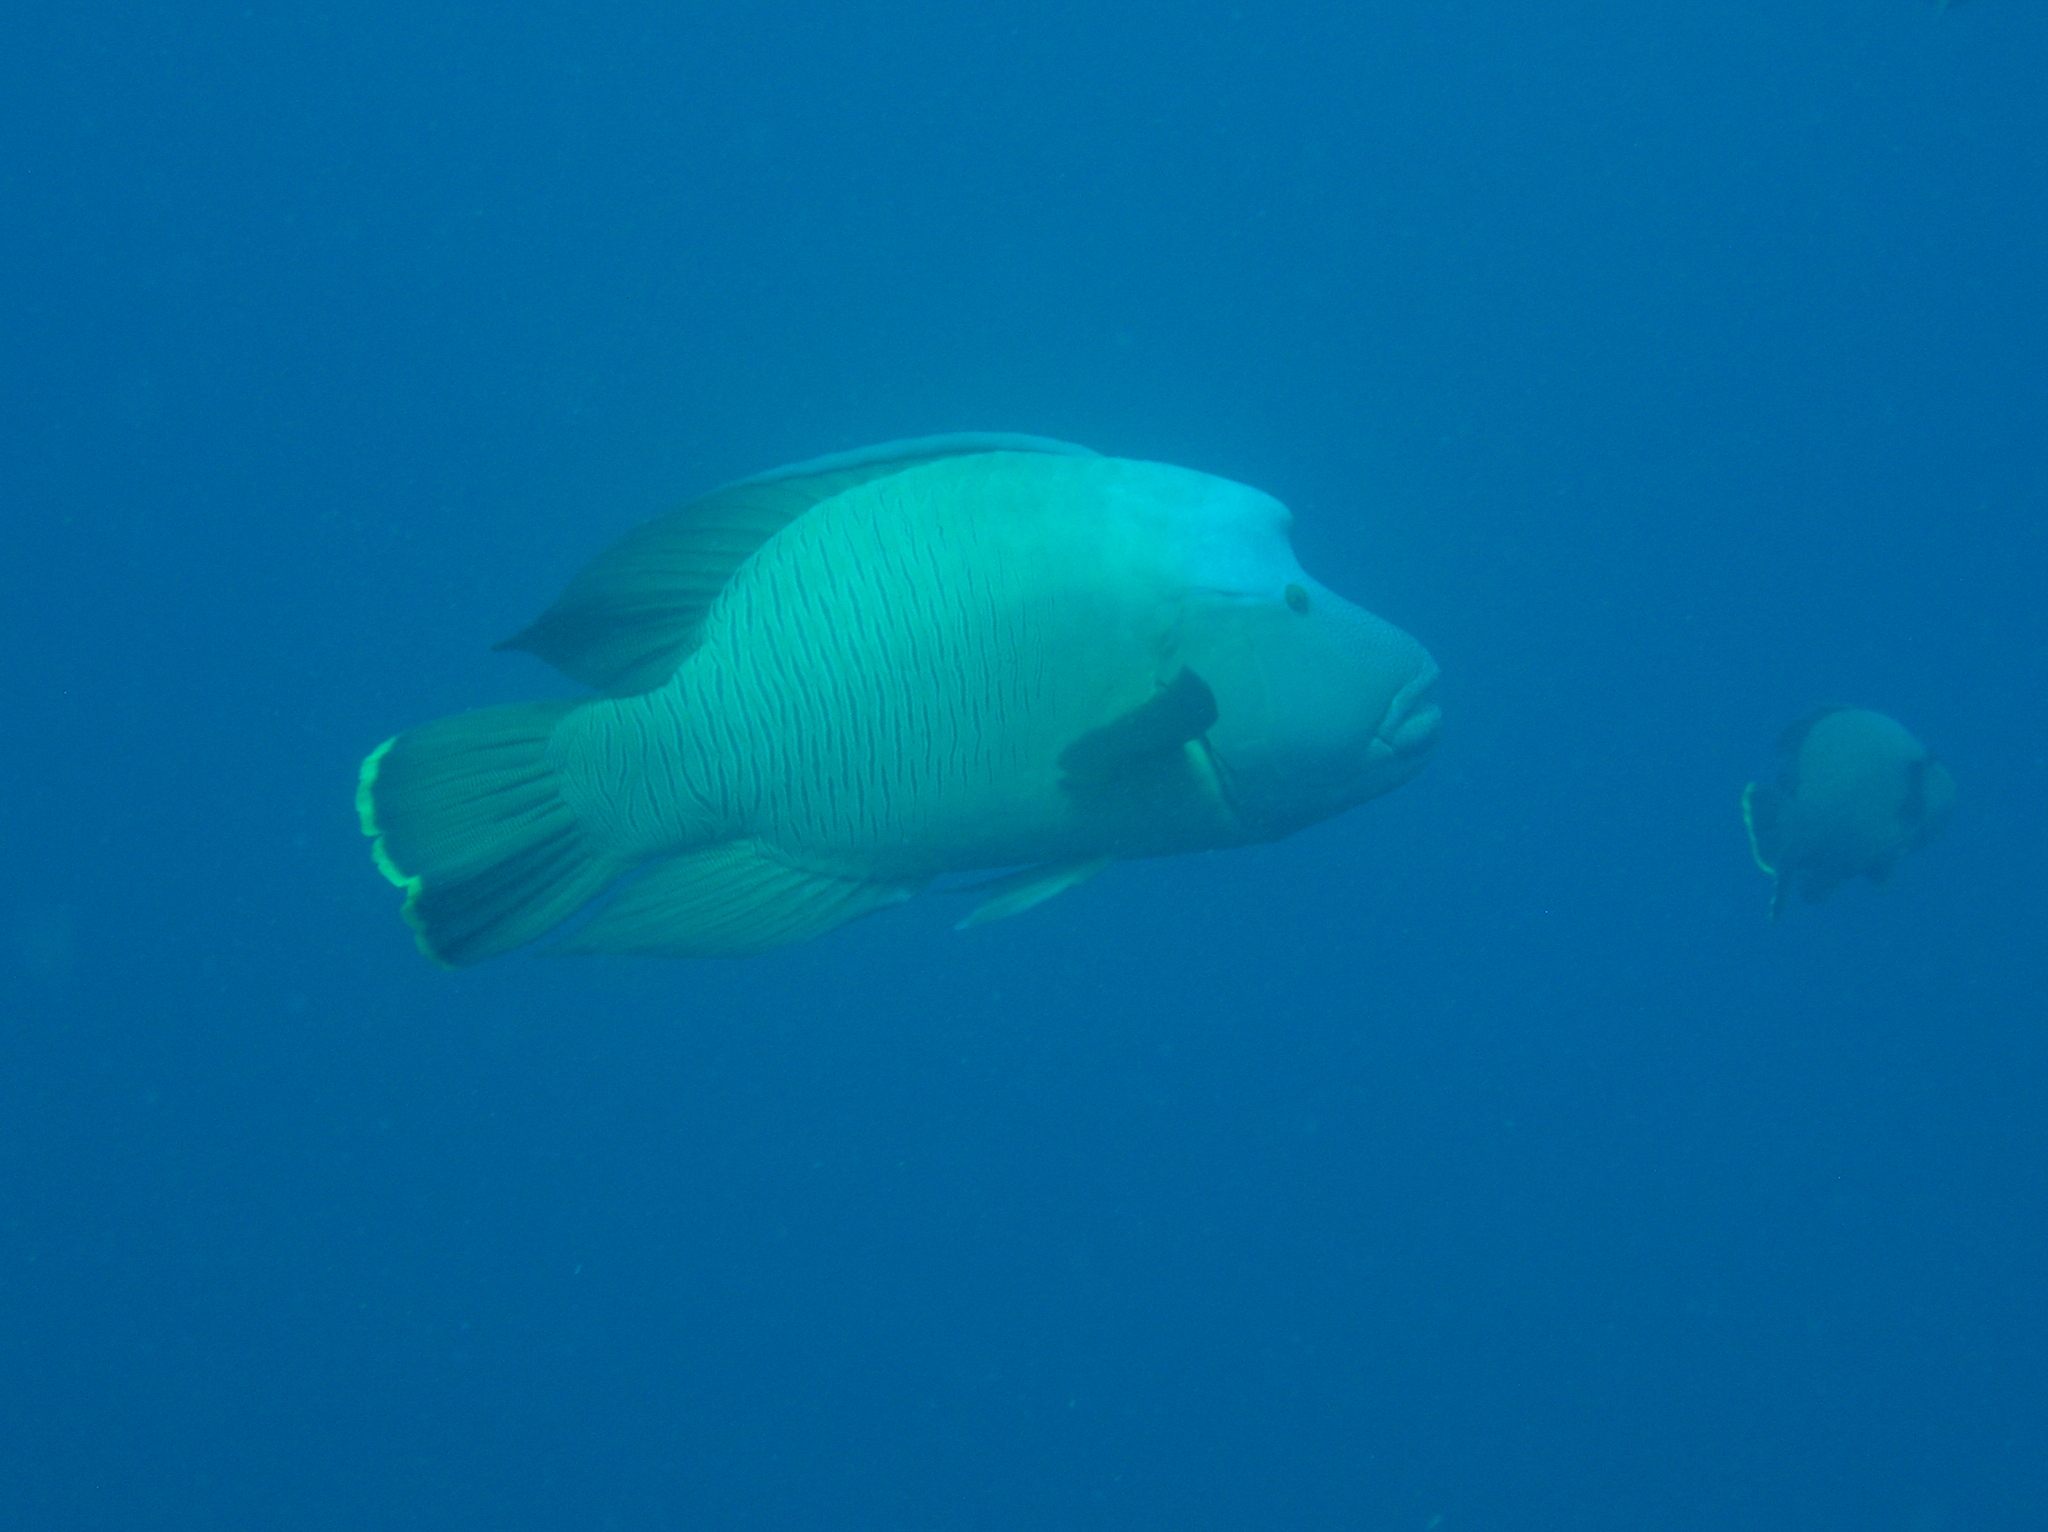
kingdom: Animalia
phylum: Chordata
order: Perciformes
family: Labridae
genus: Cheilinus
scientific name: Cheilinus undulatus
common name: Humphead wrasse
